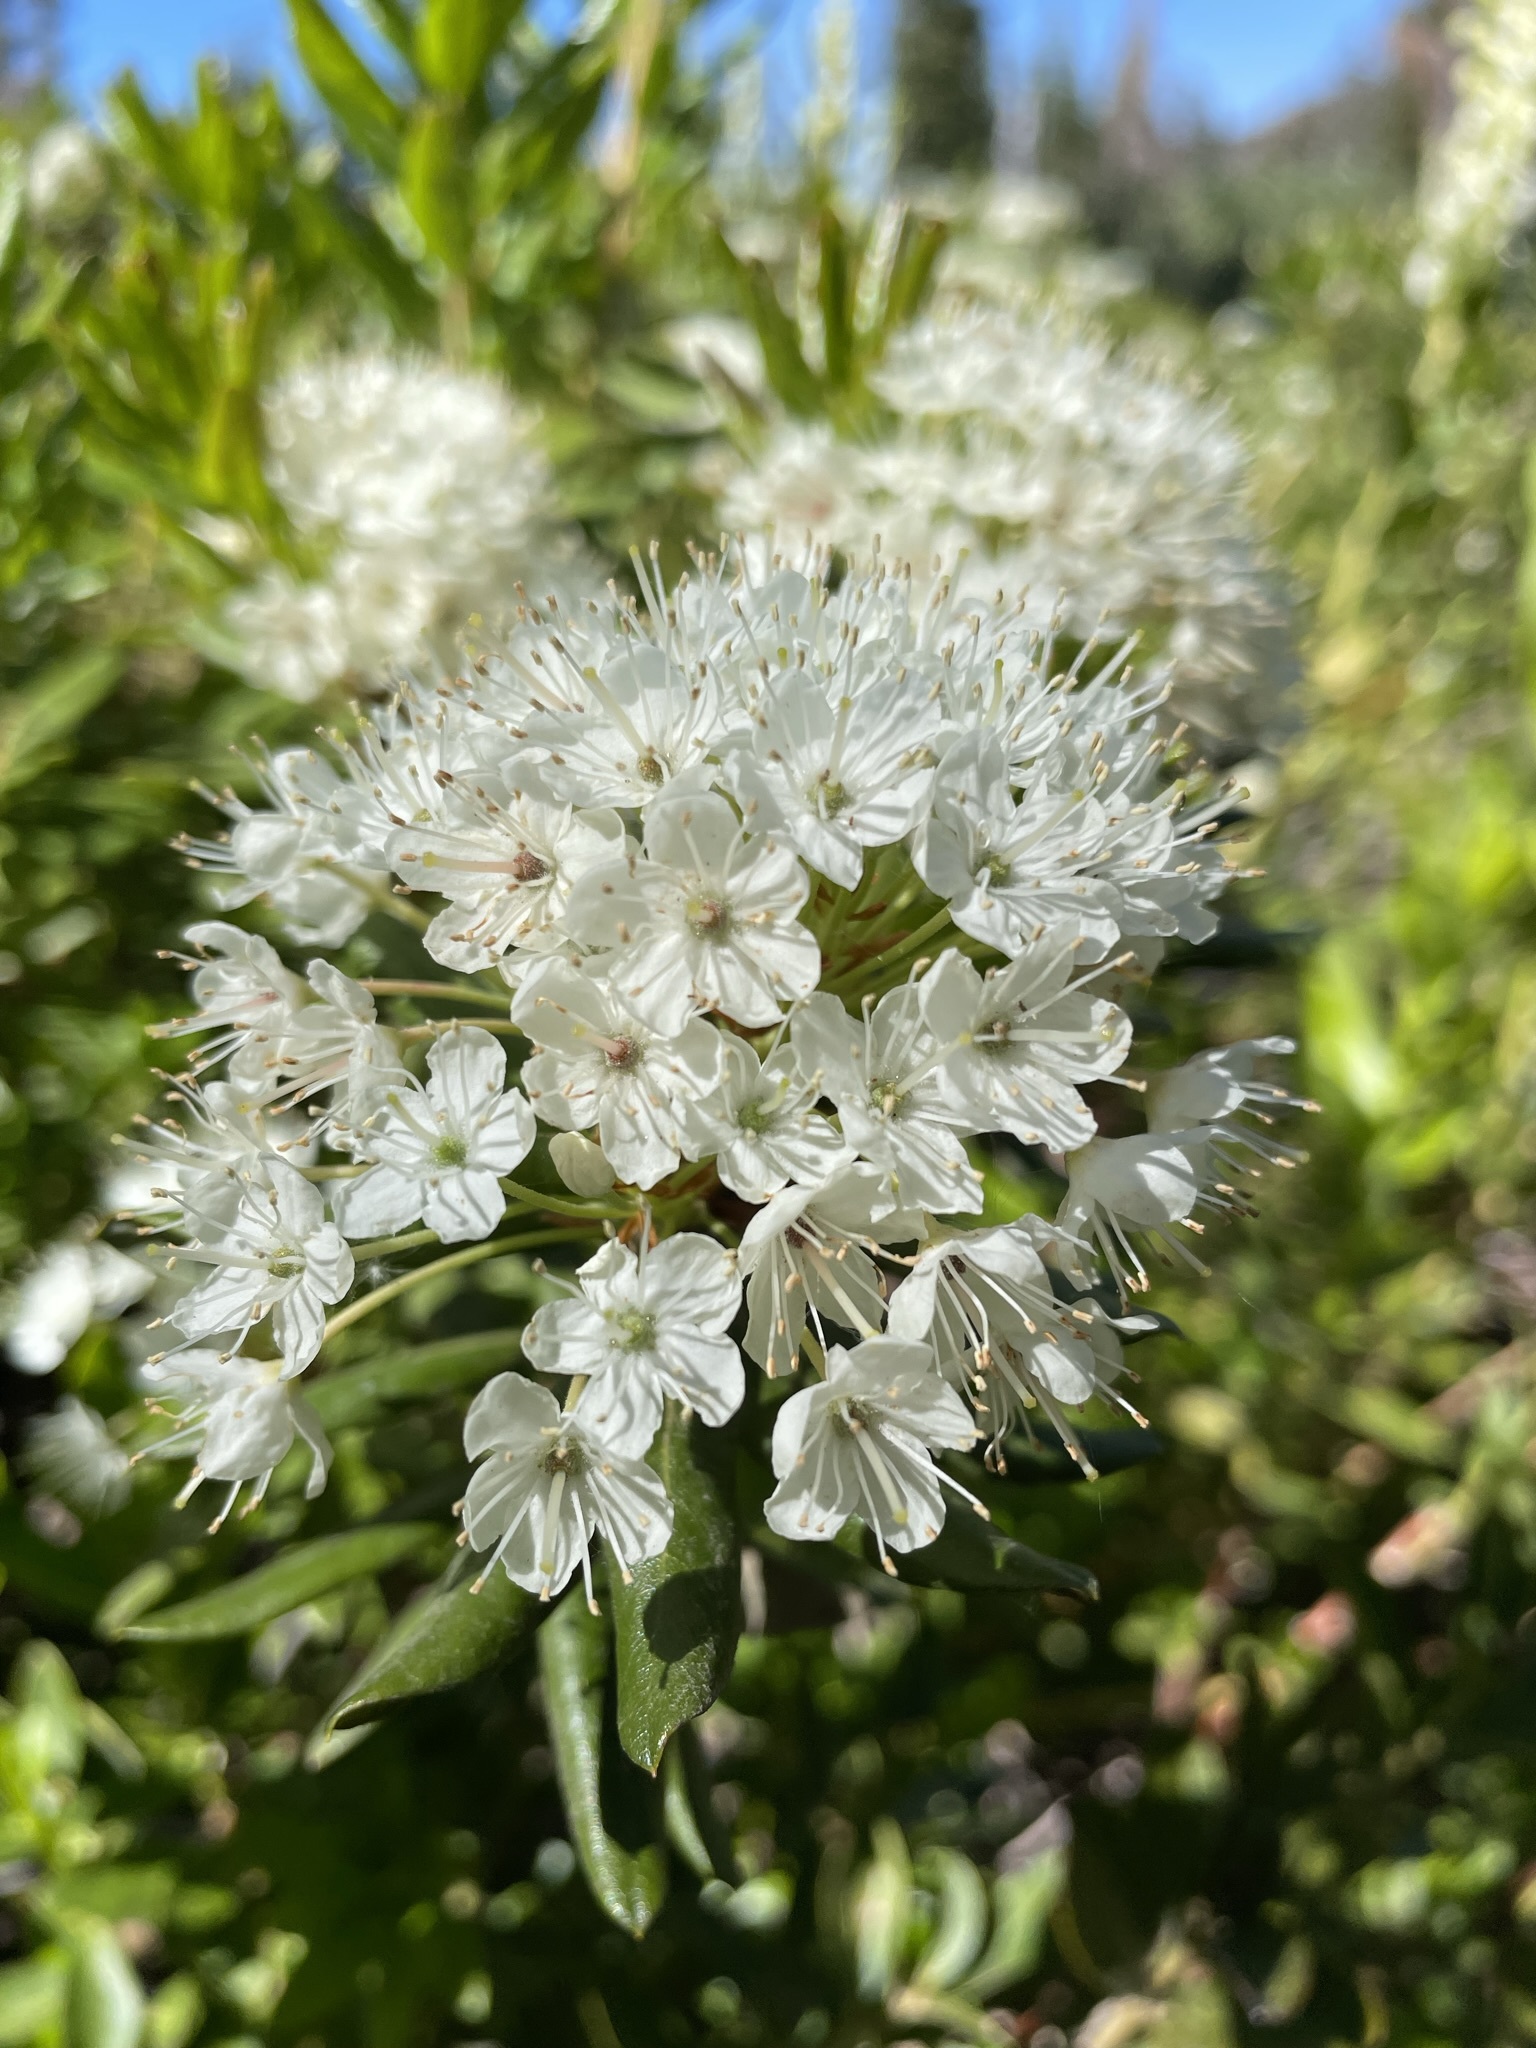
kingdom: Plantae
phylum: Tracheophyta
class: Magnoliopsida
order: Ericales
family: Ericaceae
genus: Rhododendron
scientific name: Rhododendron columbianum
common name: Western labrador tea
